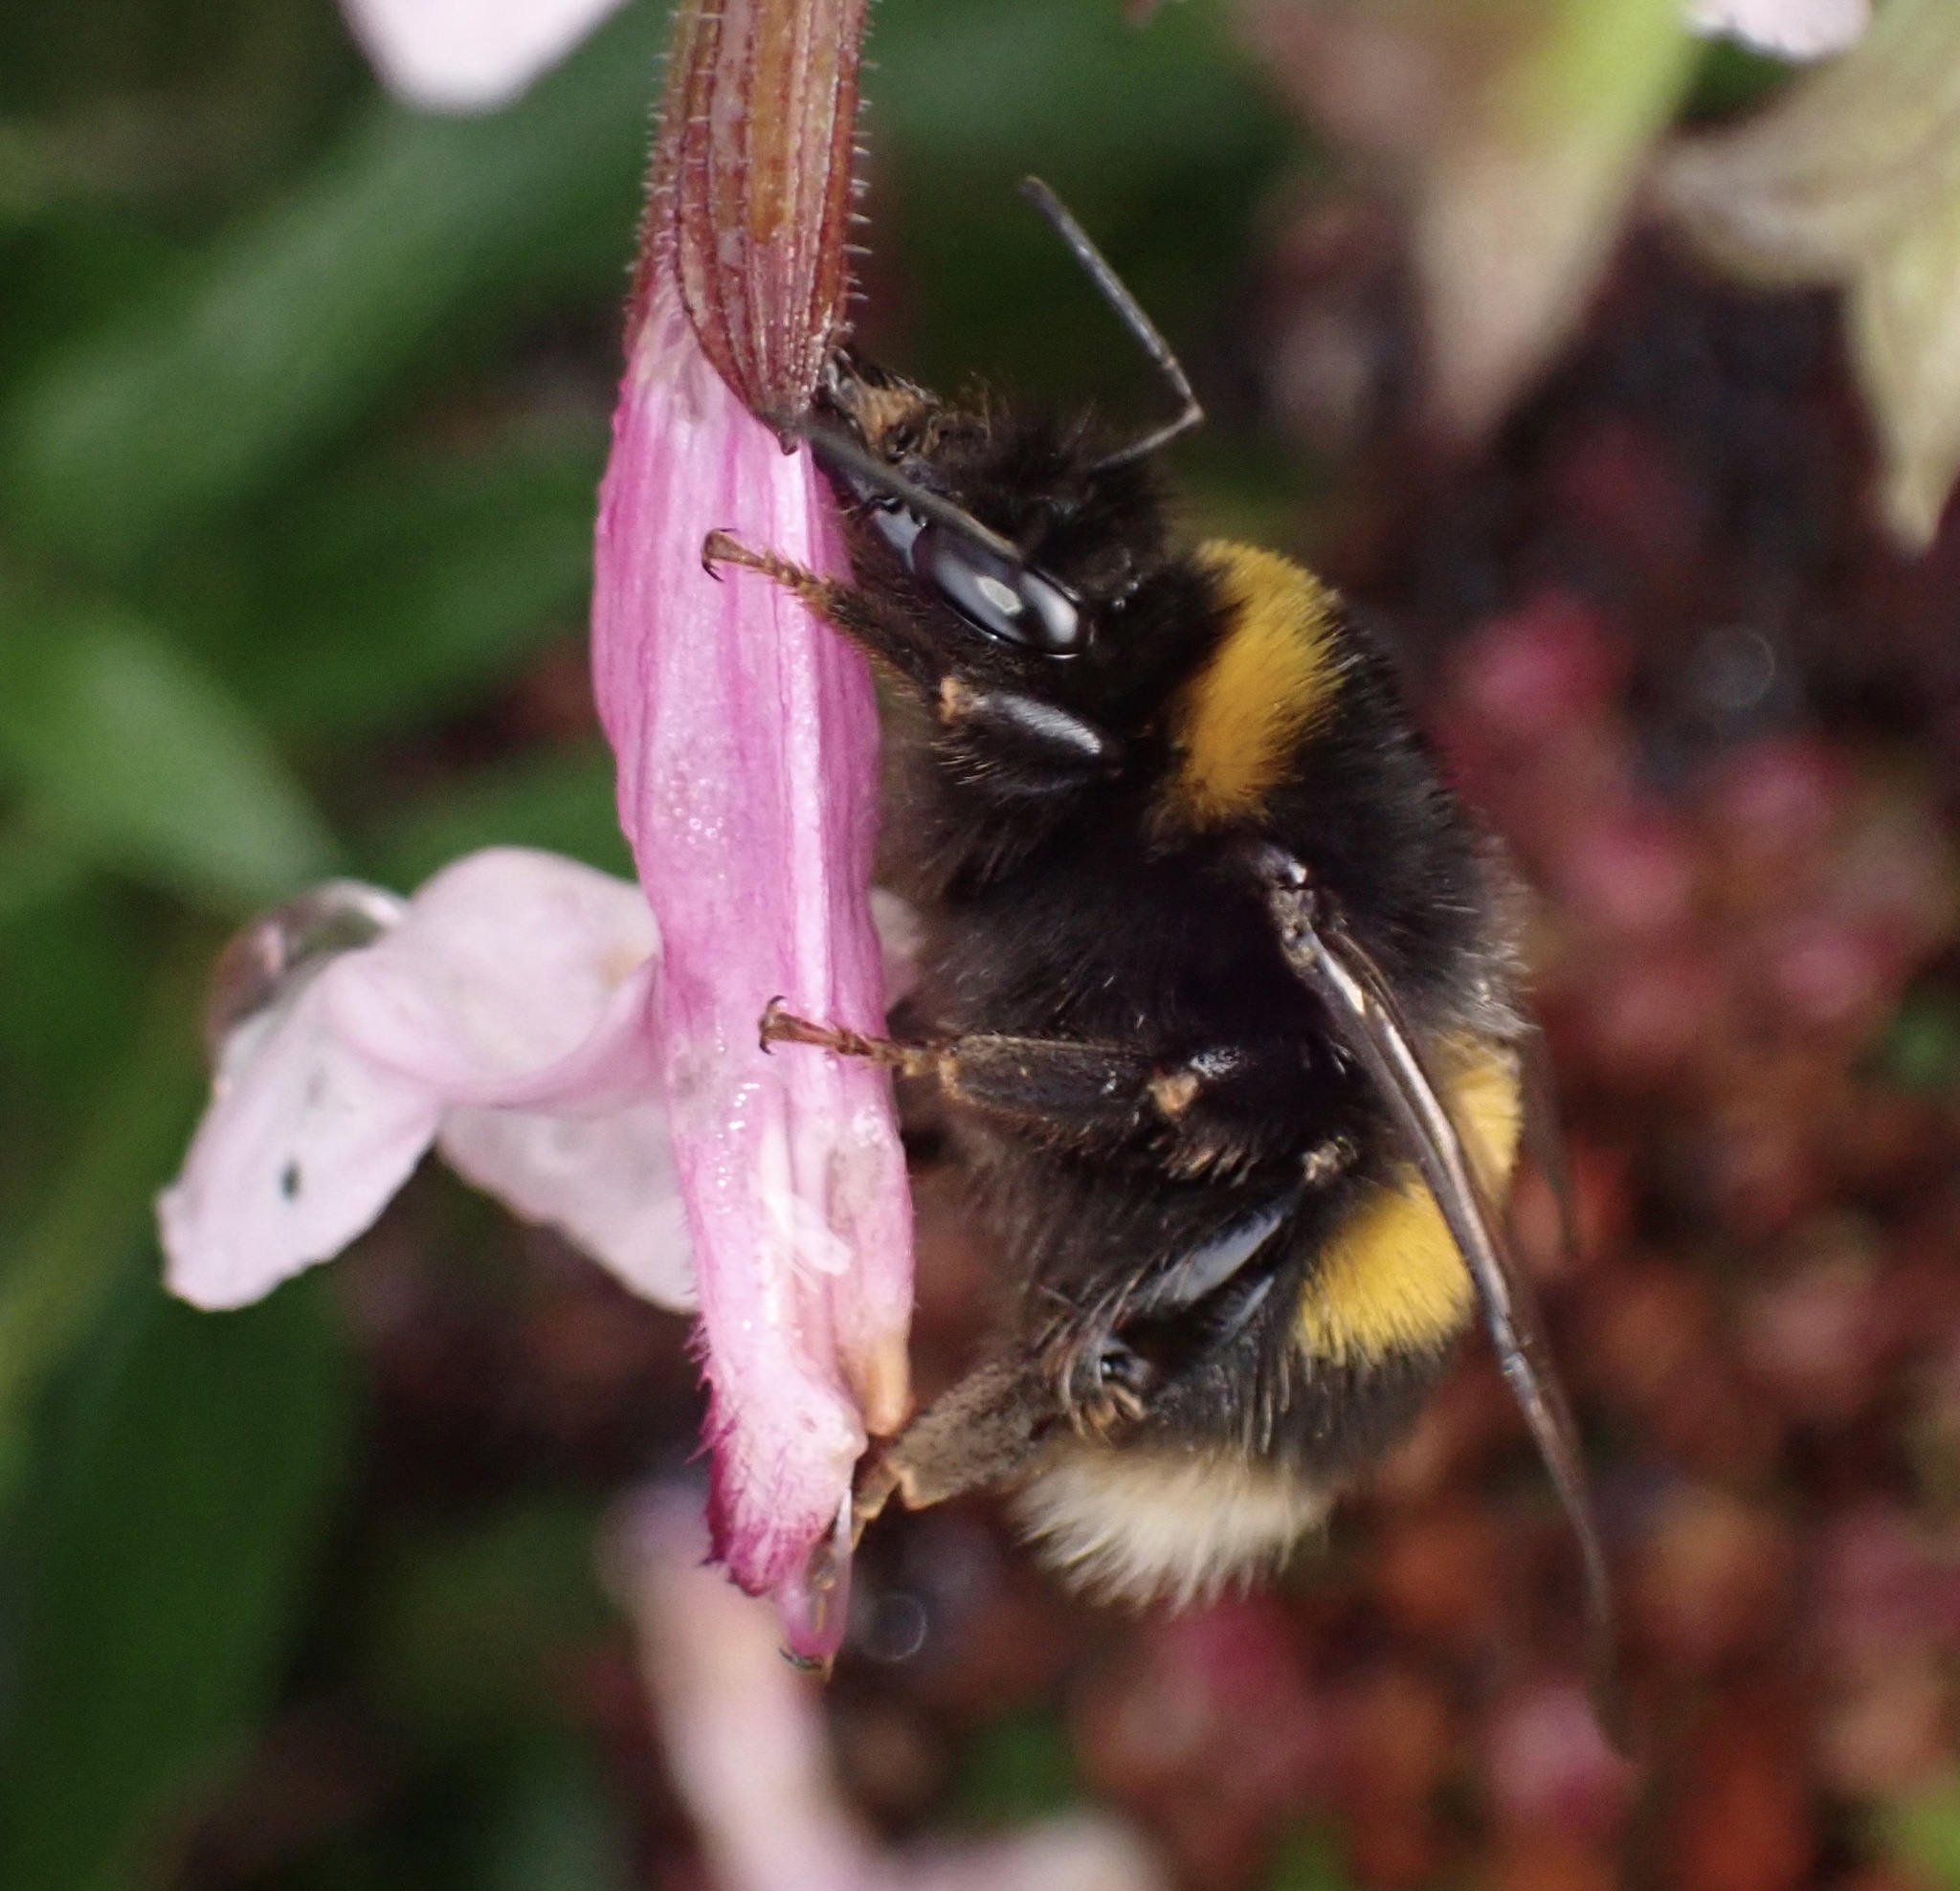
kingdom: Animalia
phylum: Arthropoda
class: Insecta
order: Hymenoptera
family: Apidae
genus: Bombus
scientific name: Bombus terrestris
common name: Buff-tailed bumblebee
